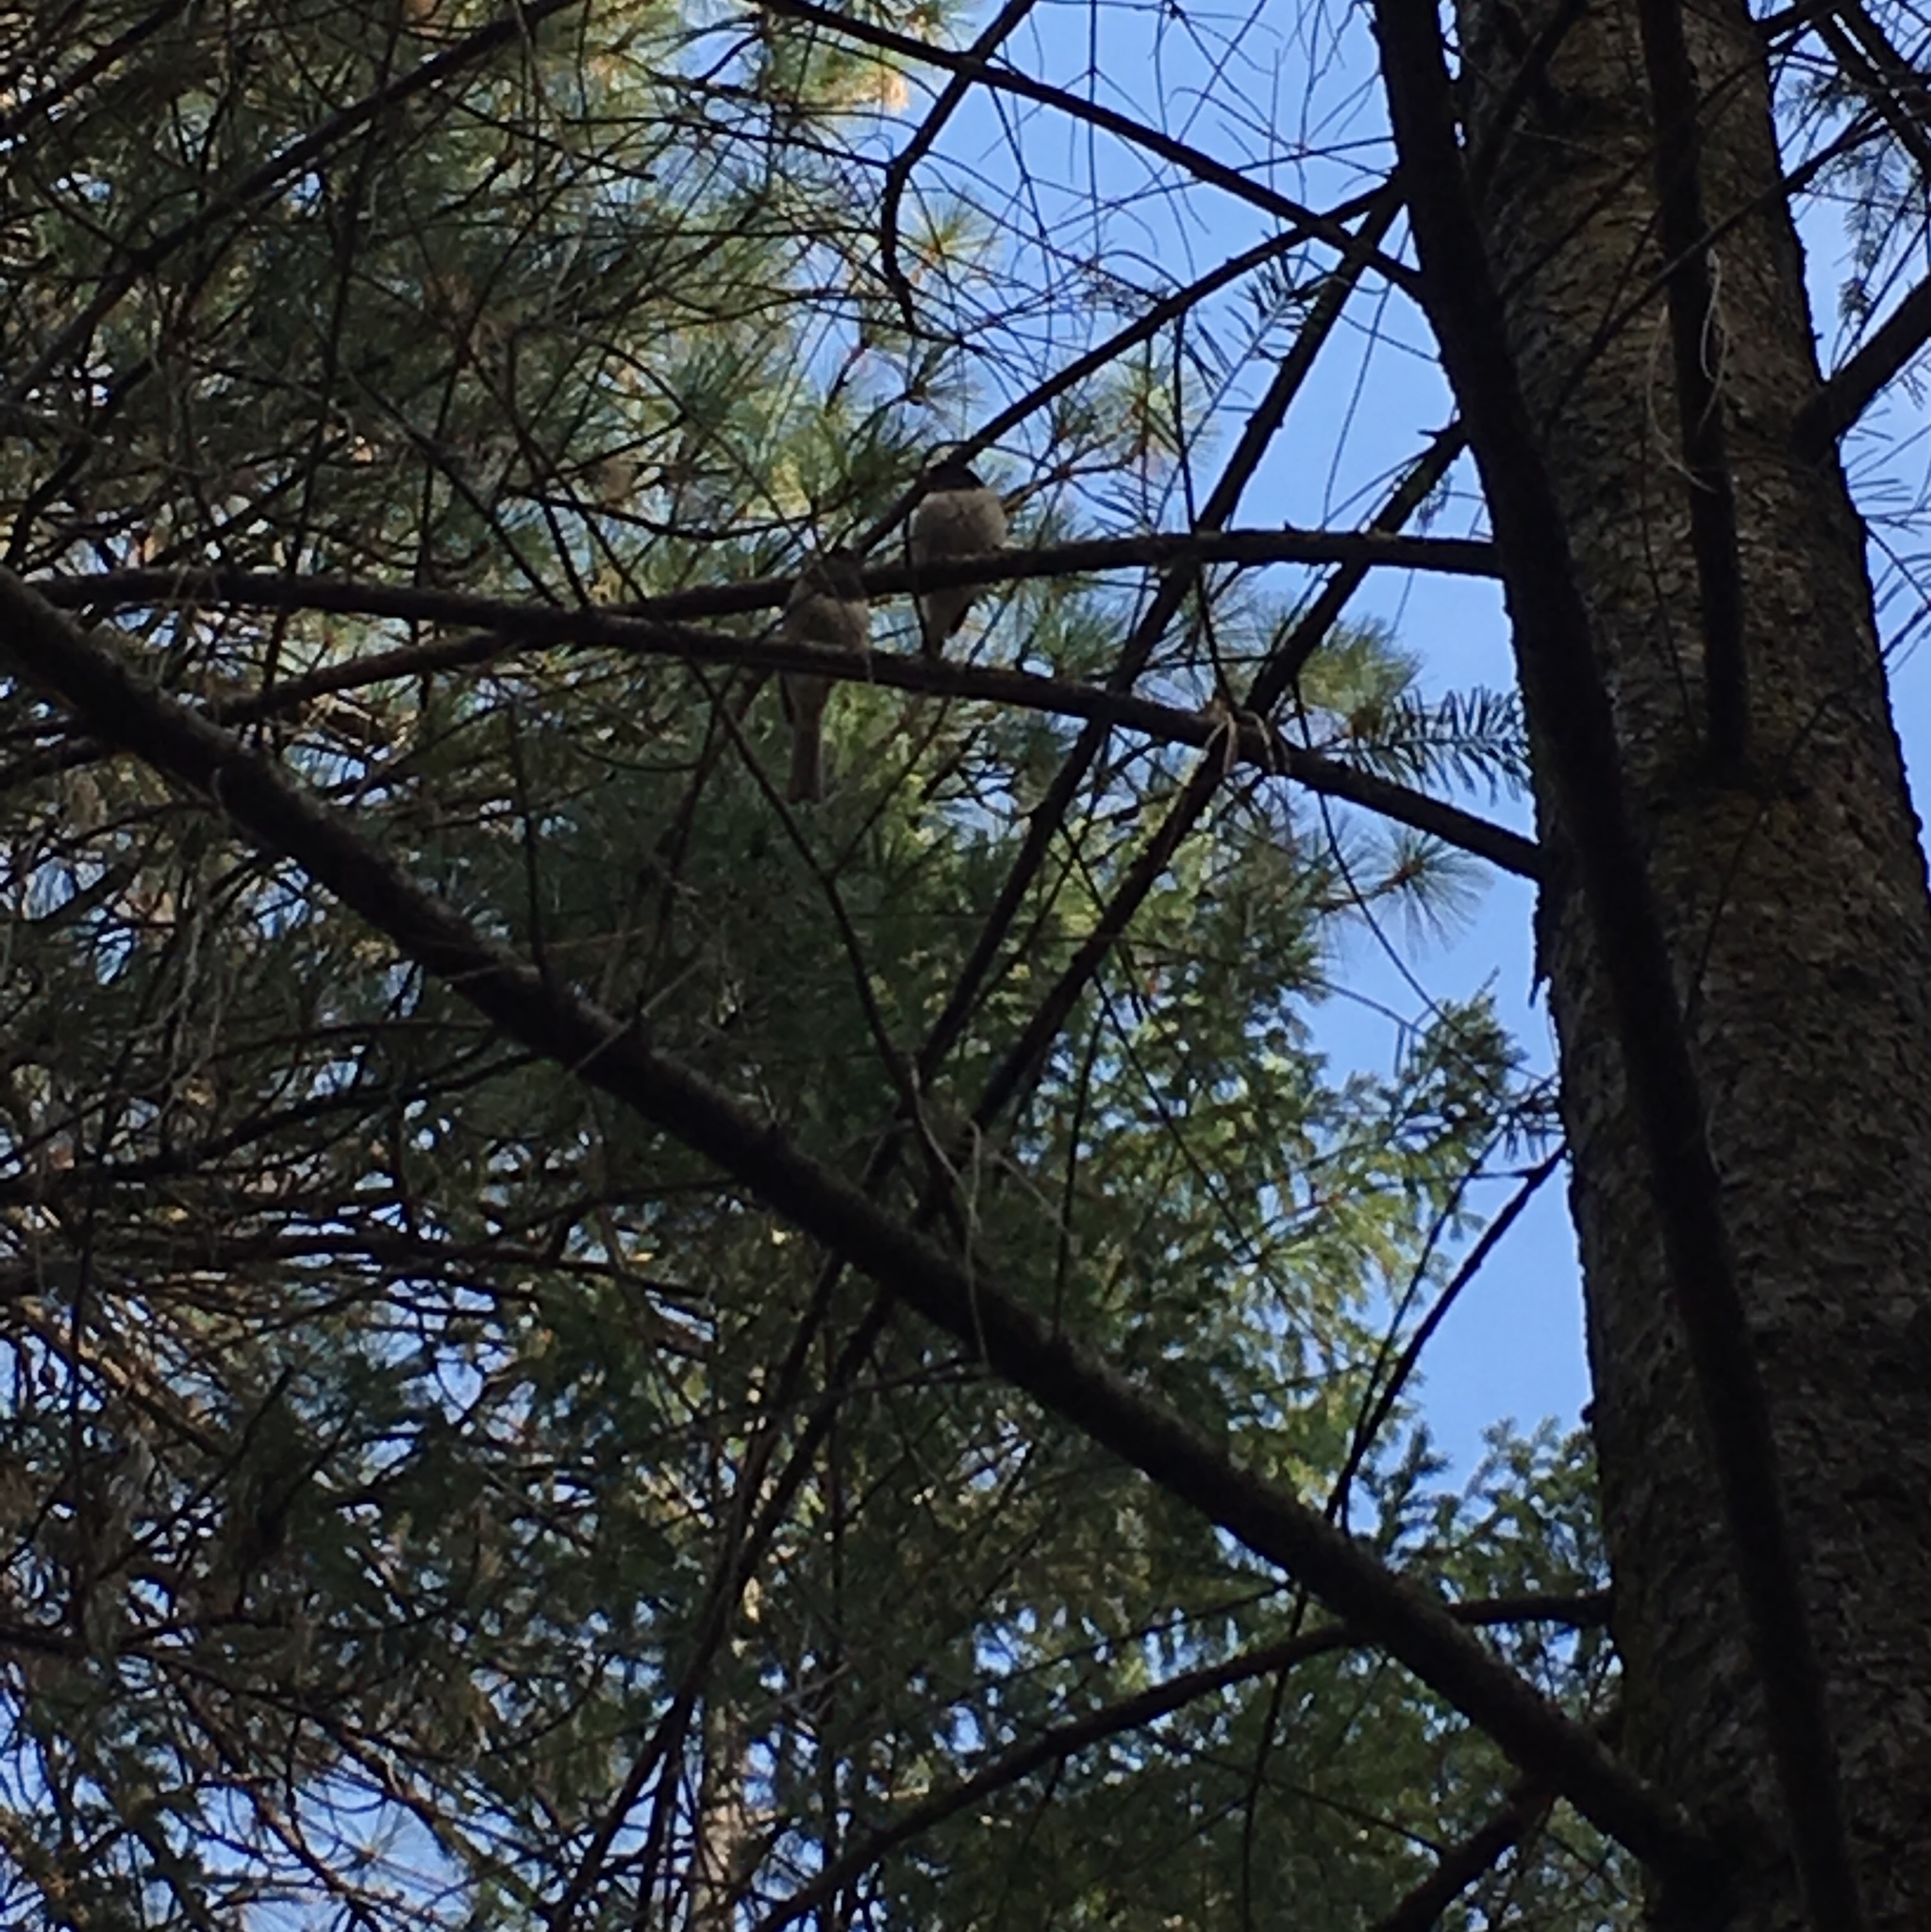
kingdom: Animalia
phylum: Chordata
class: Aves
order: Passeriformes
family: Passerellidae
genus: Junco
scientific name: Junco hyemalis
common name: Dark-eyed junco
